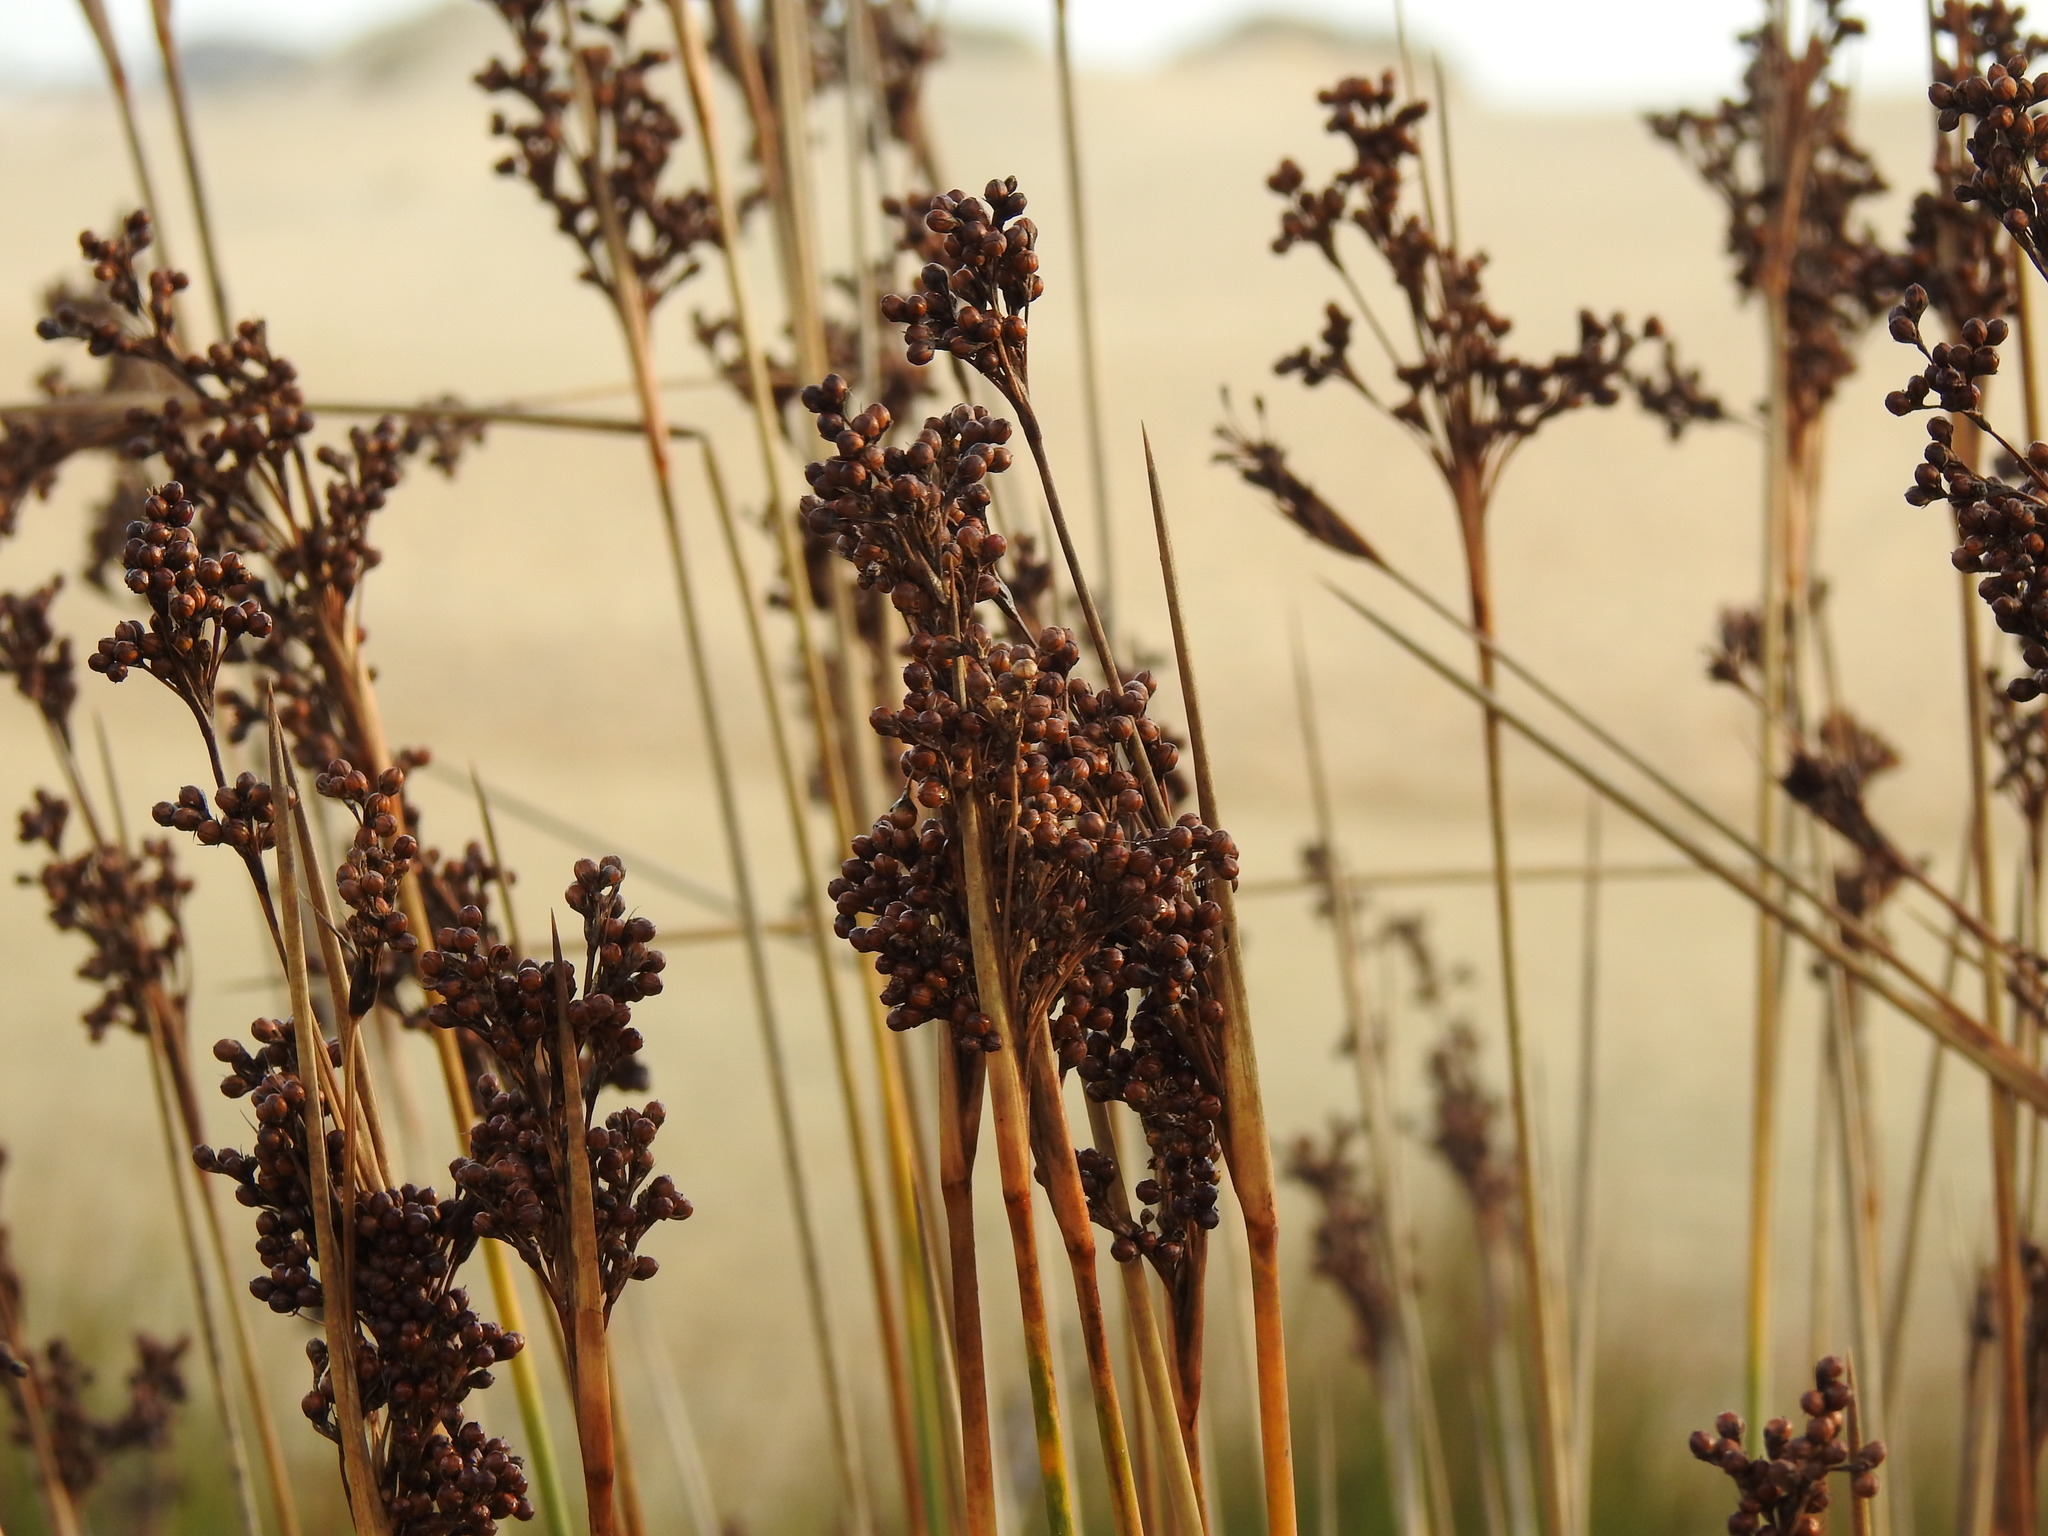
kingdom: Plantae
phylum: Tracheophyta
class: Liliopsida
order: Poales
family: Juncaceae
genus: Juncus
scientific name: Juncus acutus
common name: Sharp rush
